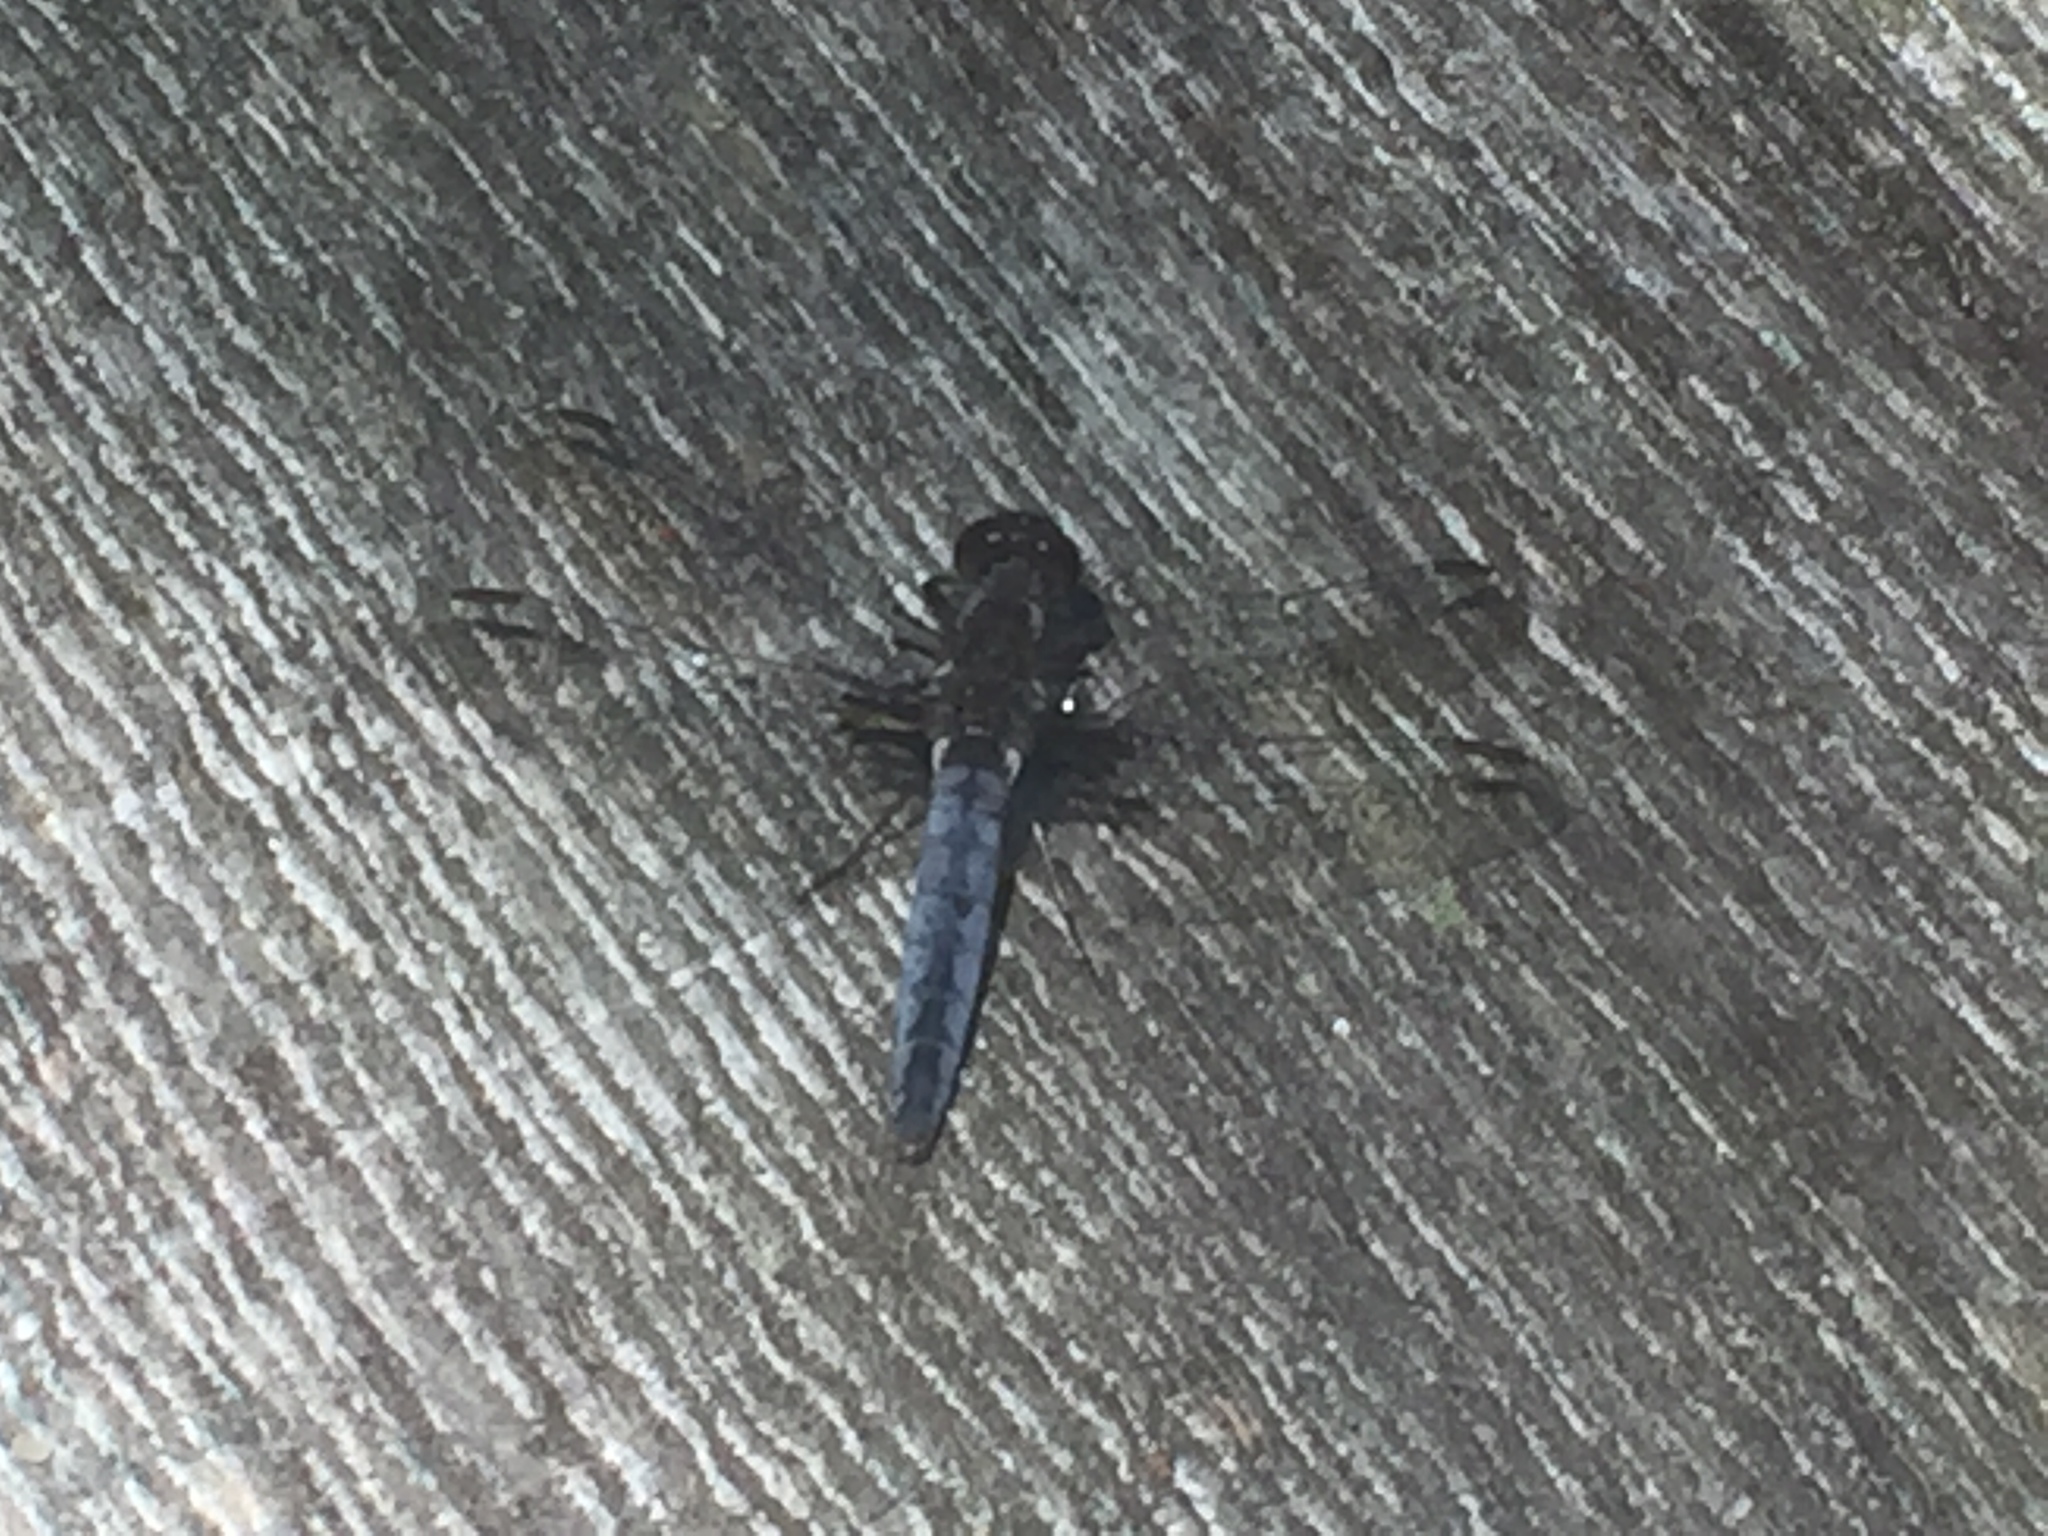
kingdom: Animalia
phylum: Arthropoda
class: Insecta
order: Odonata
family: Libellulidae
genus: Ladona
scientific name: Ladona deplanata
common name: Blue corporal
